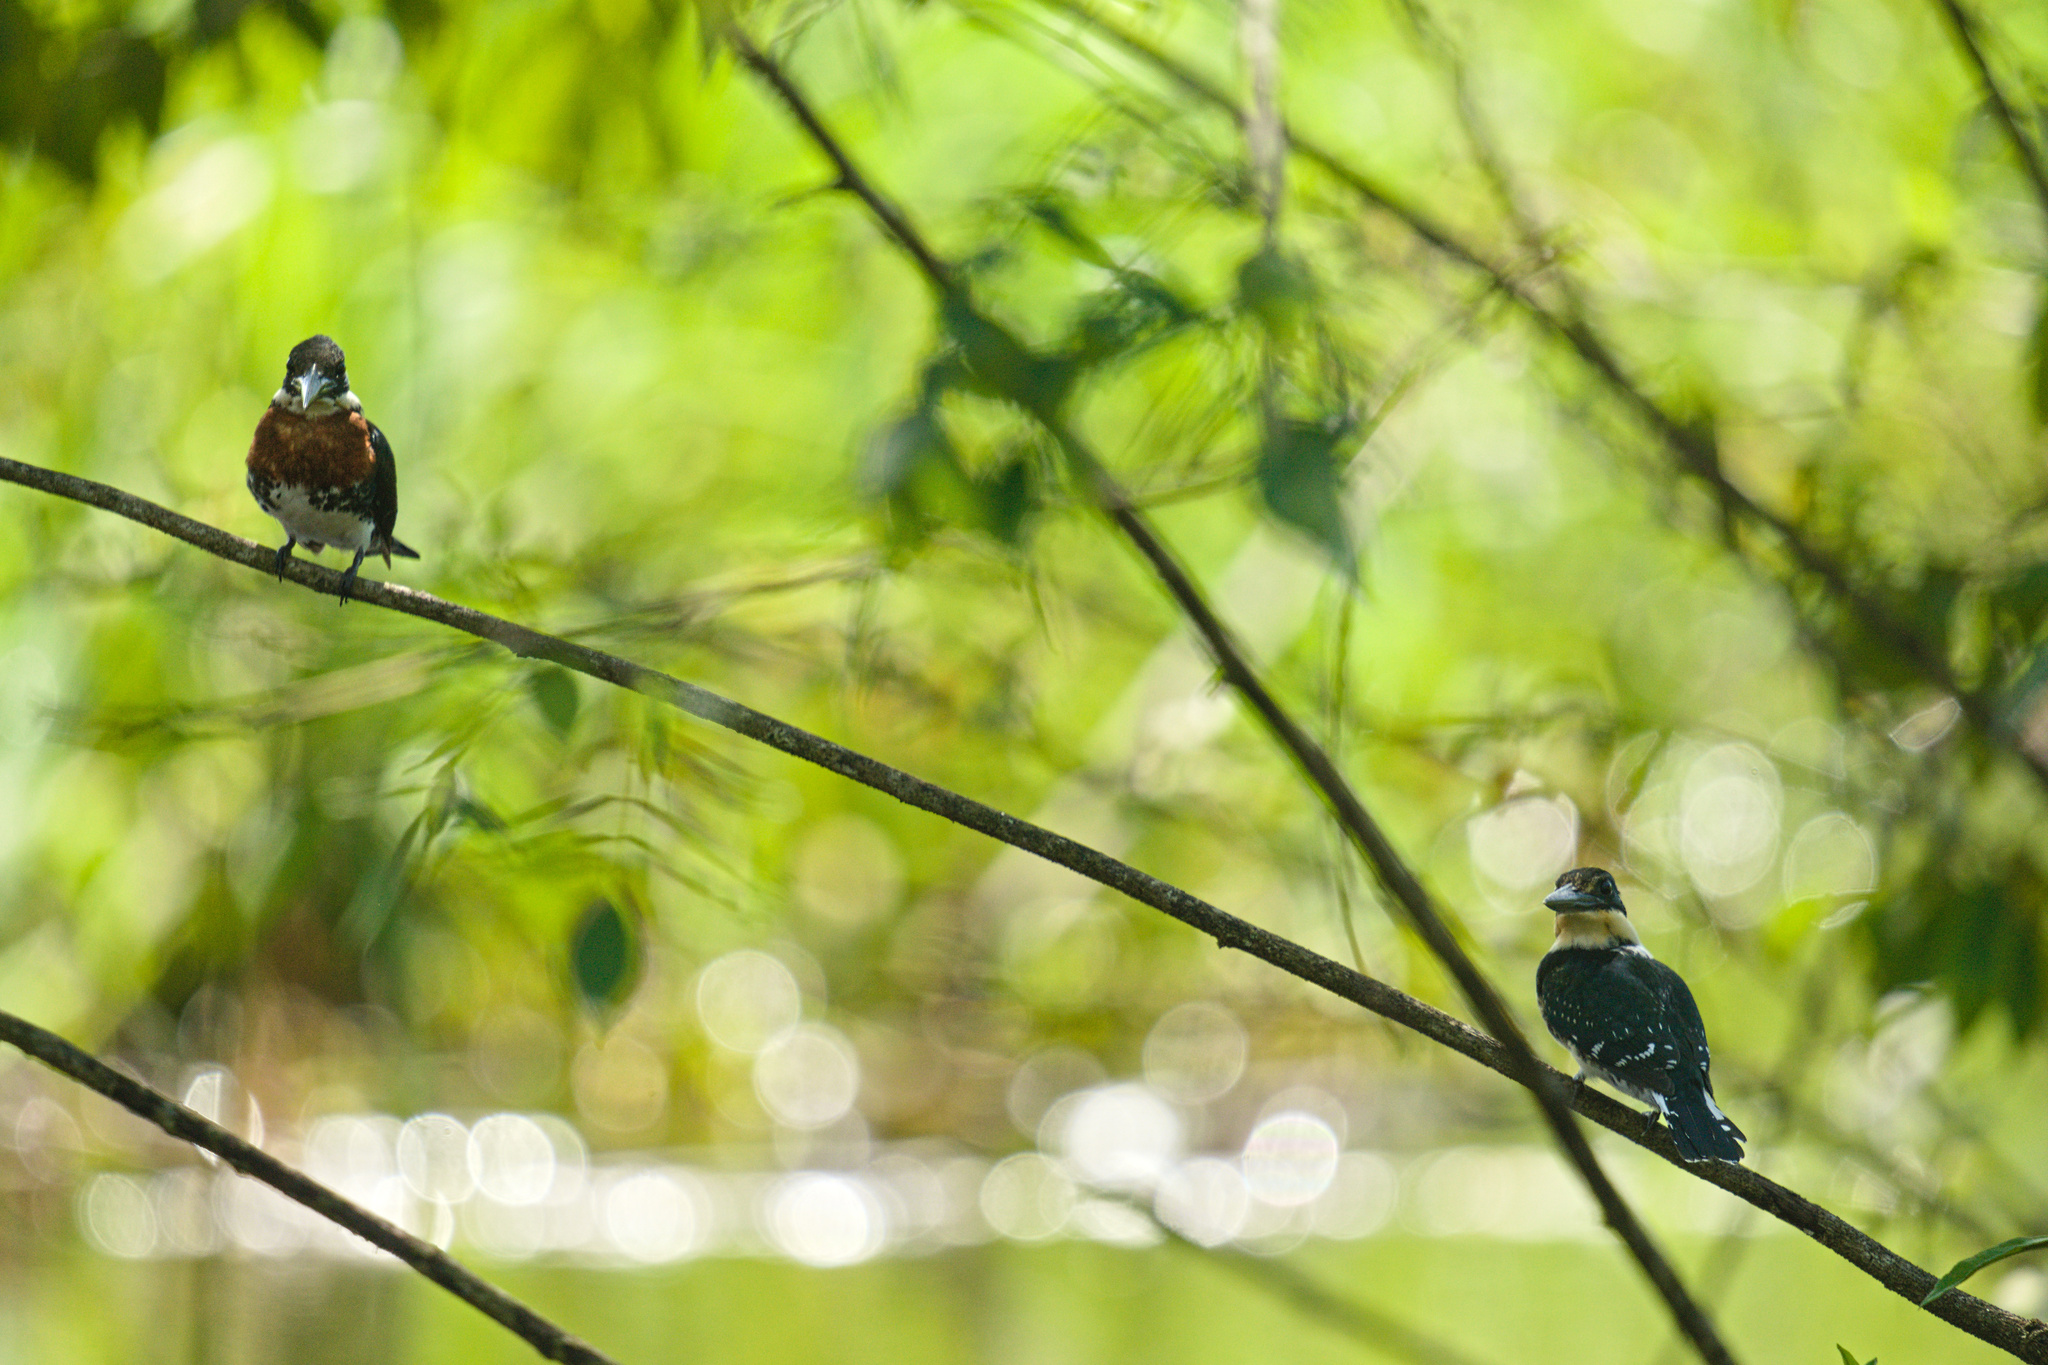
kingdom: Animalia
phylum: Chordata
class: Aves
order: Coraciiformes
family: Alcedinidae
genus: Chloroceryle
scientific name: Chloroceryle americana
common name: Green kingfisher
